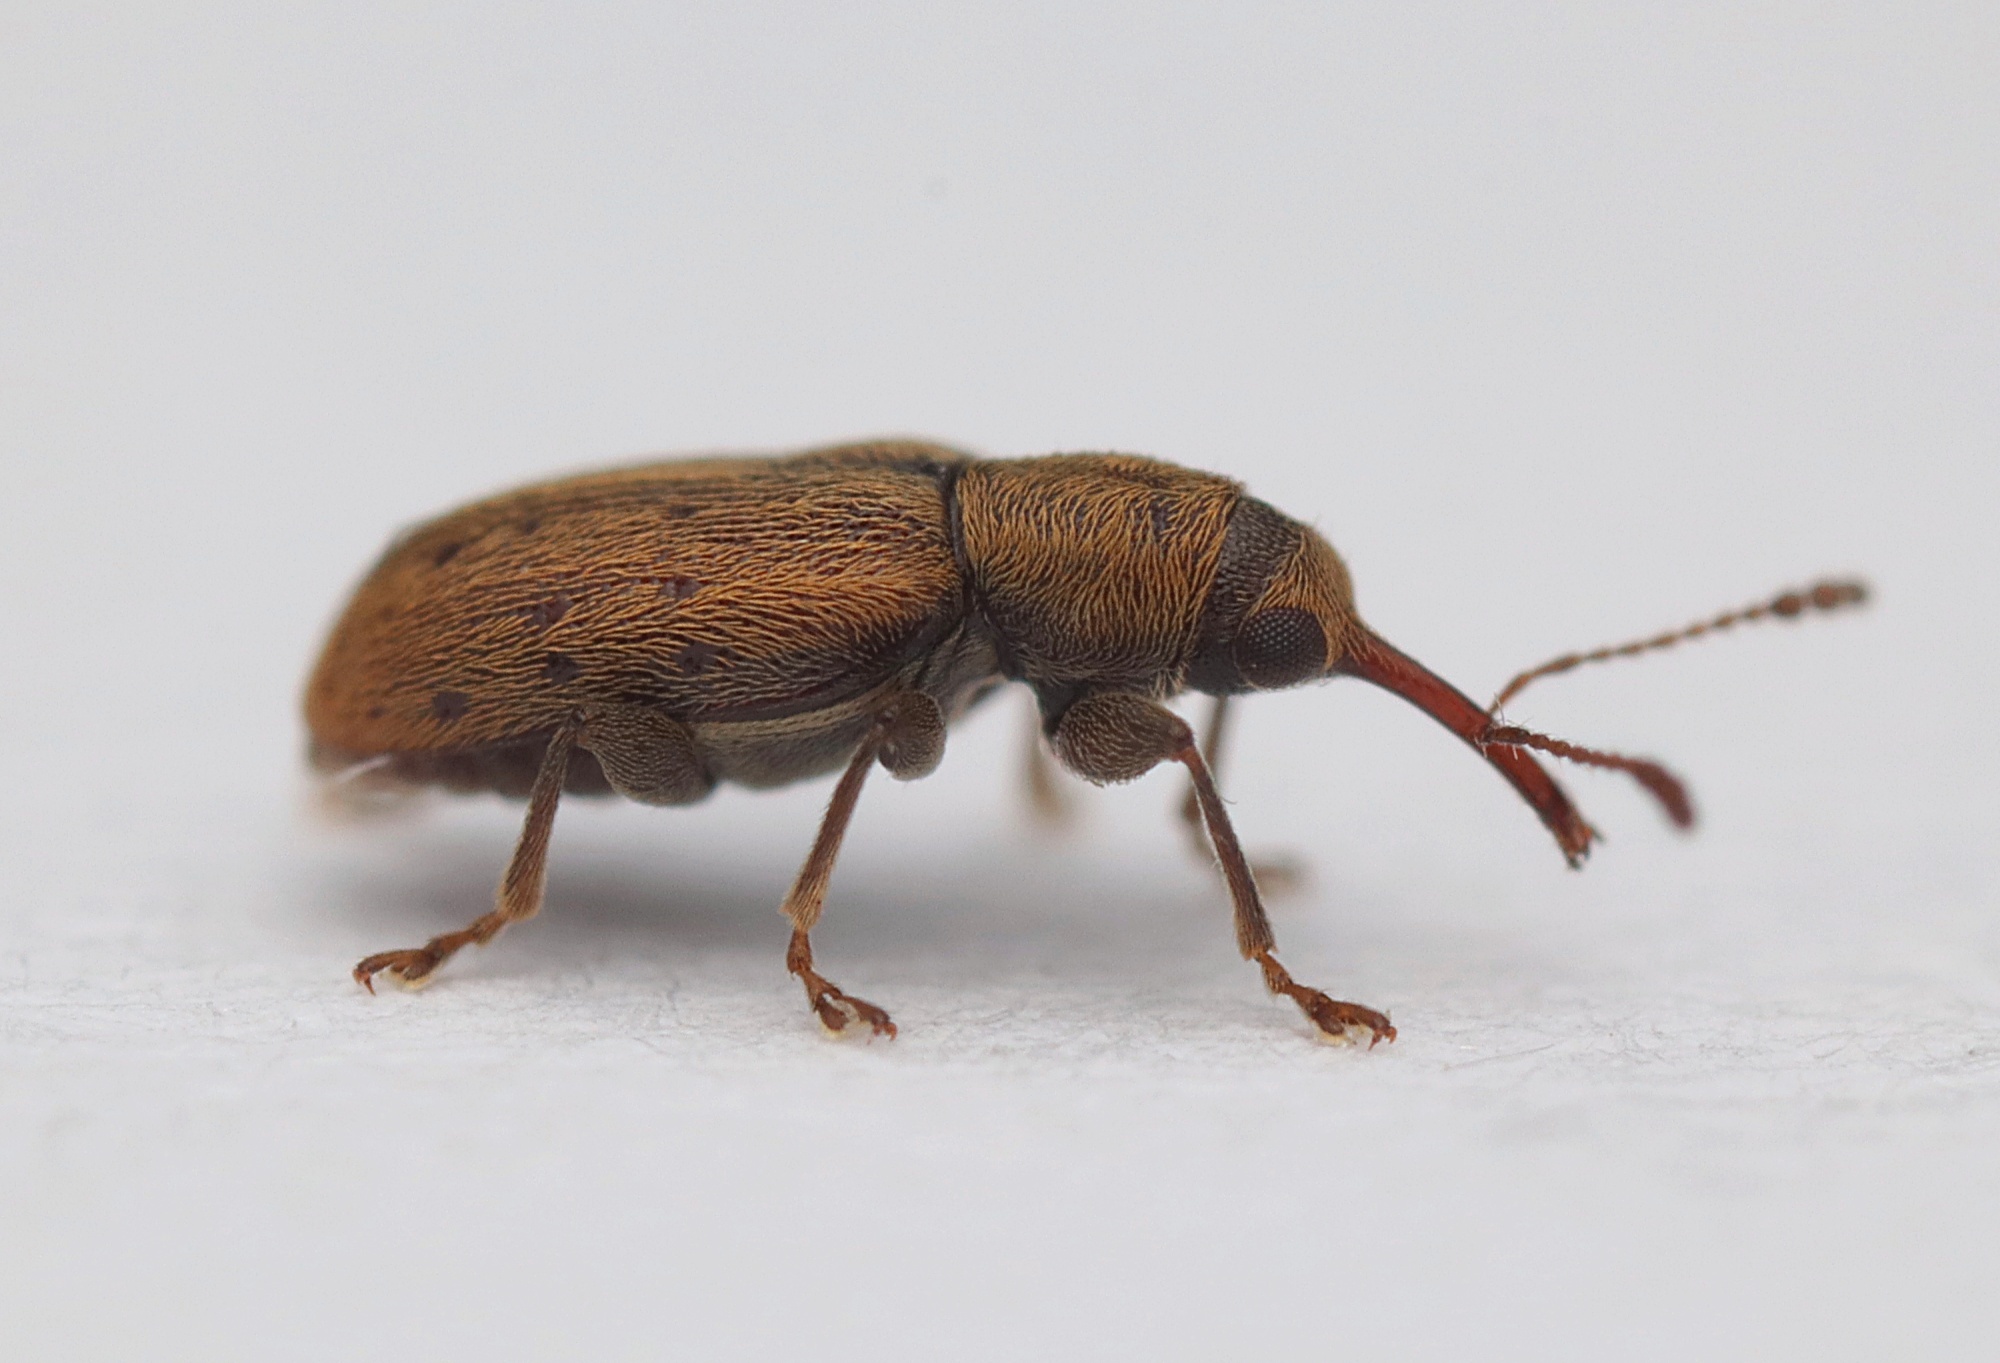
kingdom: Animalia
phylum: Arthropoda
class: Insecta
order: Coleoptera
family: Nemonychidae
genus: Rhinorhynchus
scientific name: Rhinorhynchus rufulus
